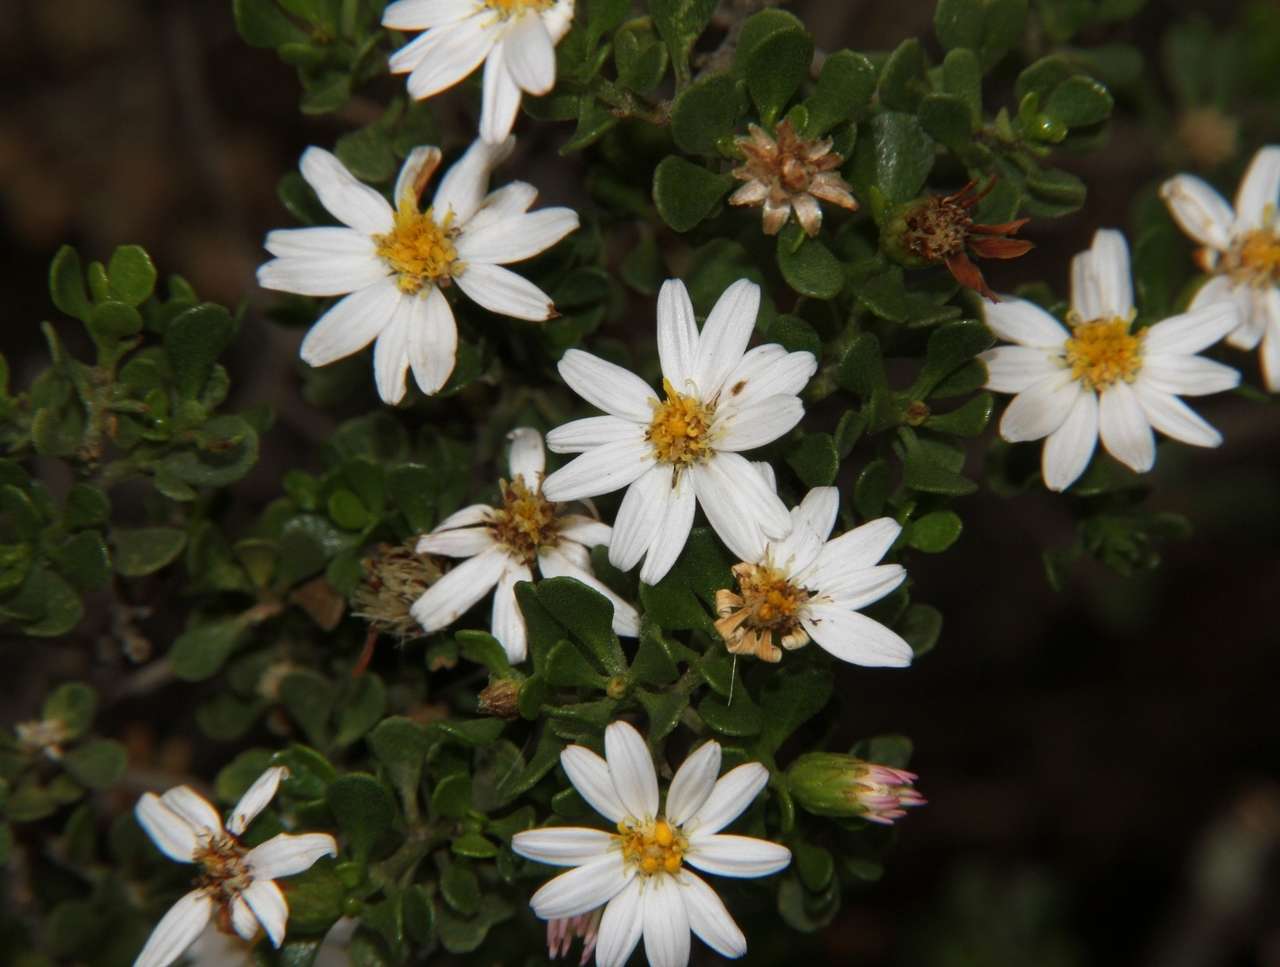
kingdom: Plantae
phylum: Tracheophyta
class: Magnoliopsida
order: Asterales
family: Asteraceae
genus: Walsholaria
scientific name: Walsholaria muelleri
